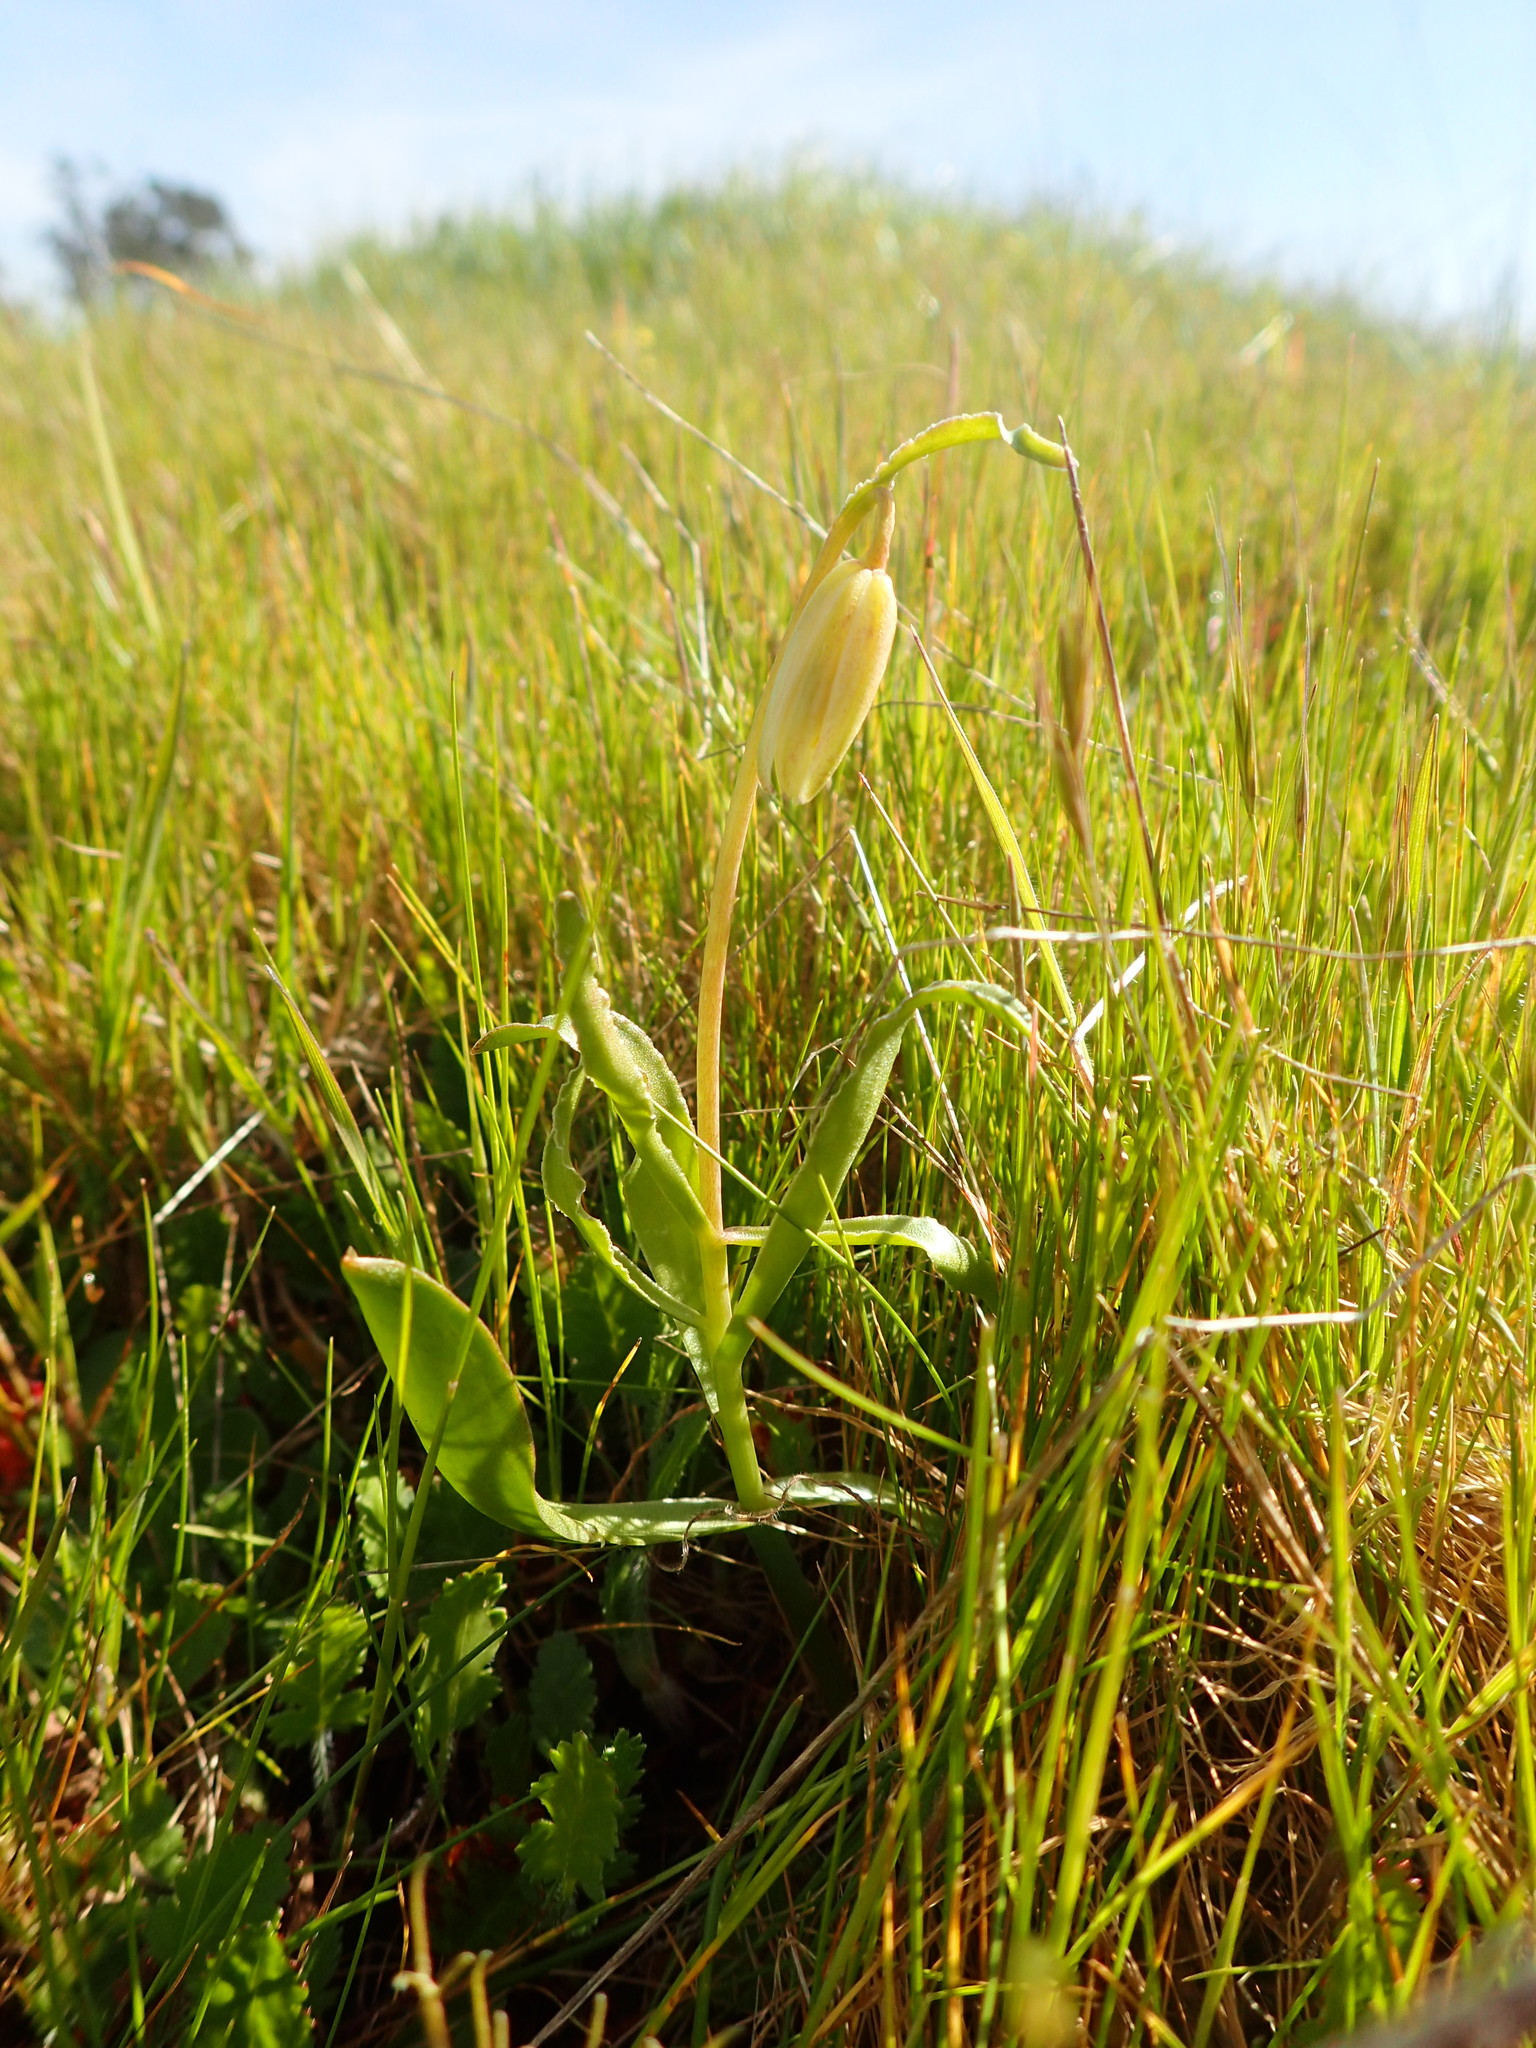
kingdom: Plantae
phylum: Tracheophyta
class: Liliopsida
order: Liliales
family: Liliaceae
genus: Fritillaria
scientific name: Fritillaria liliacea
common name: Fragrant fritillary
